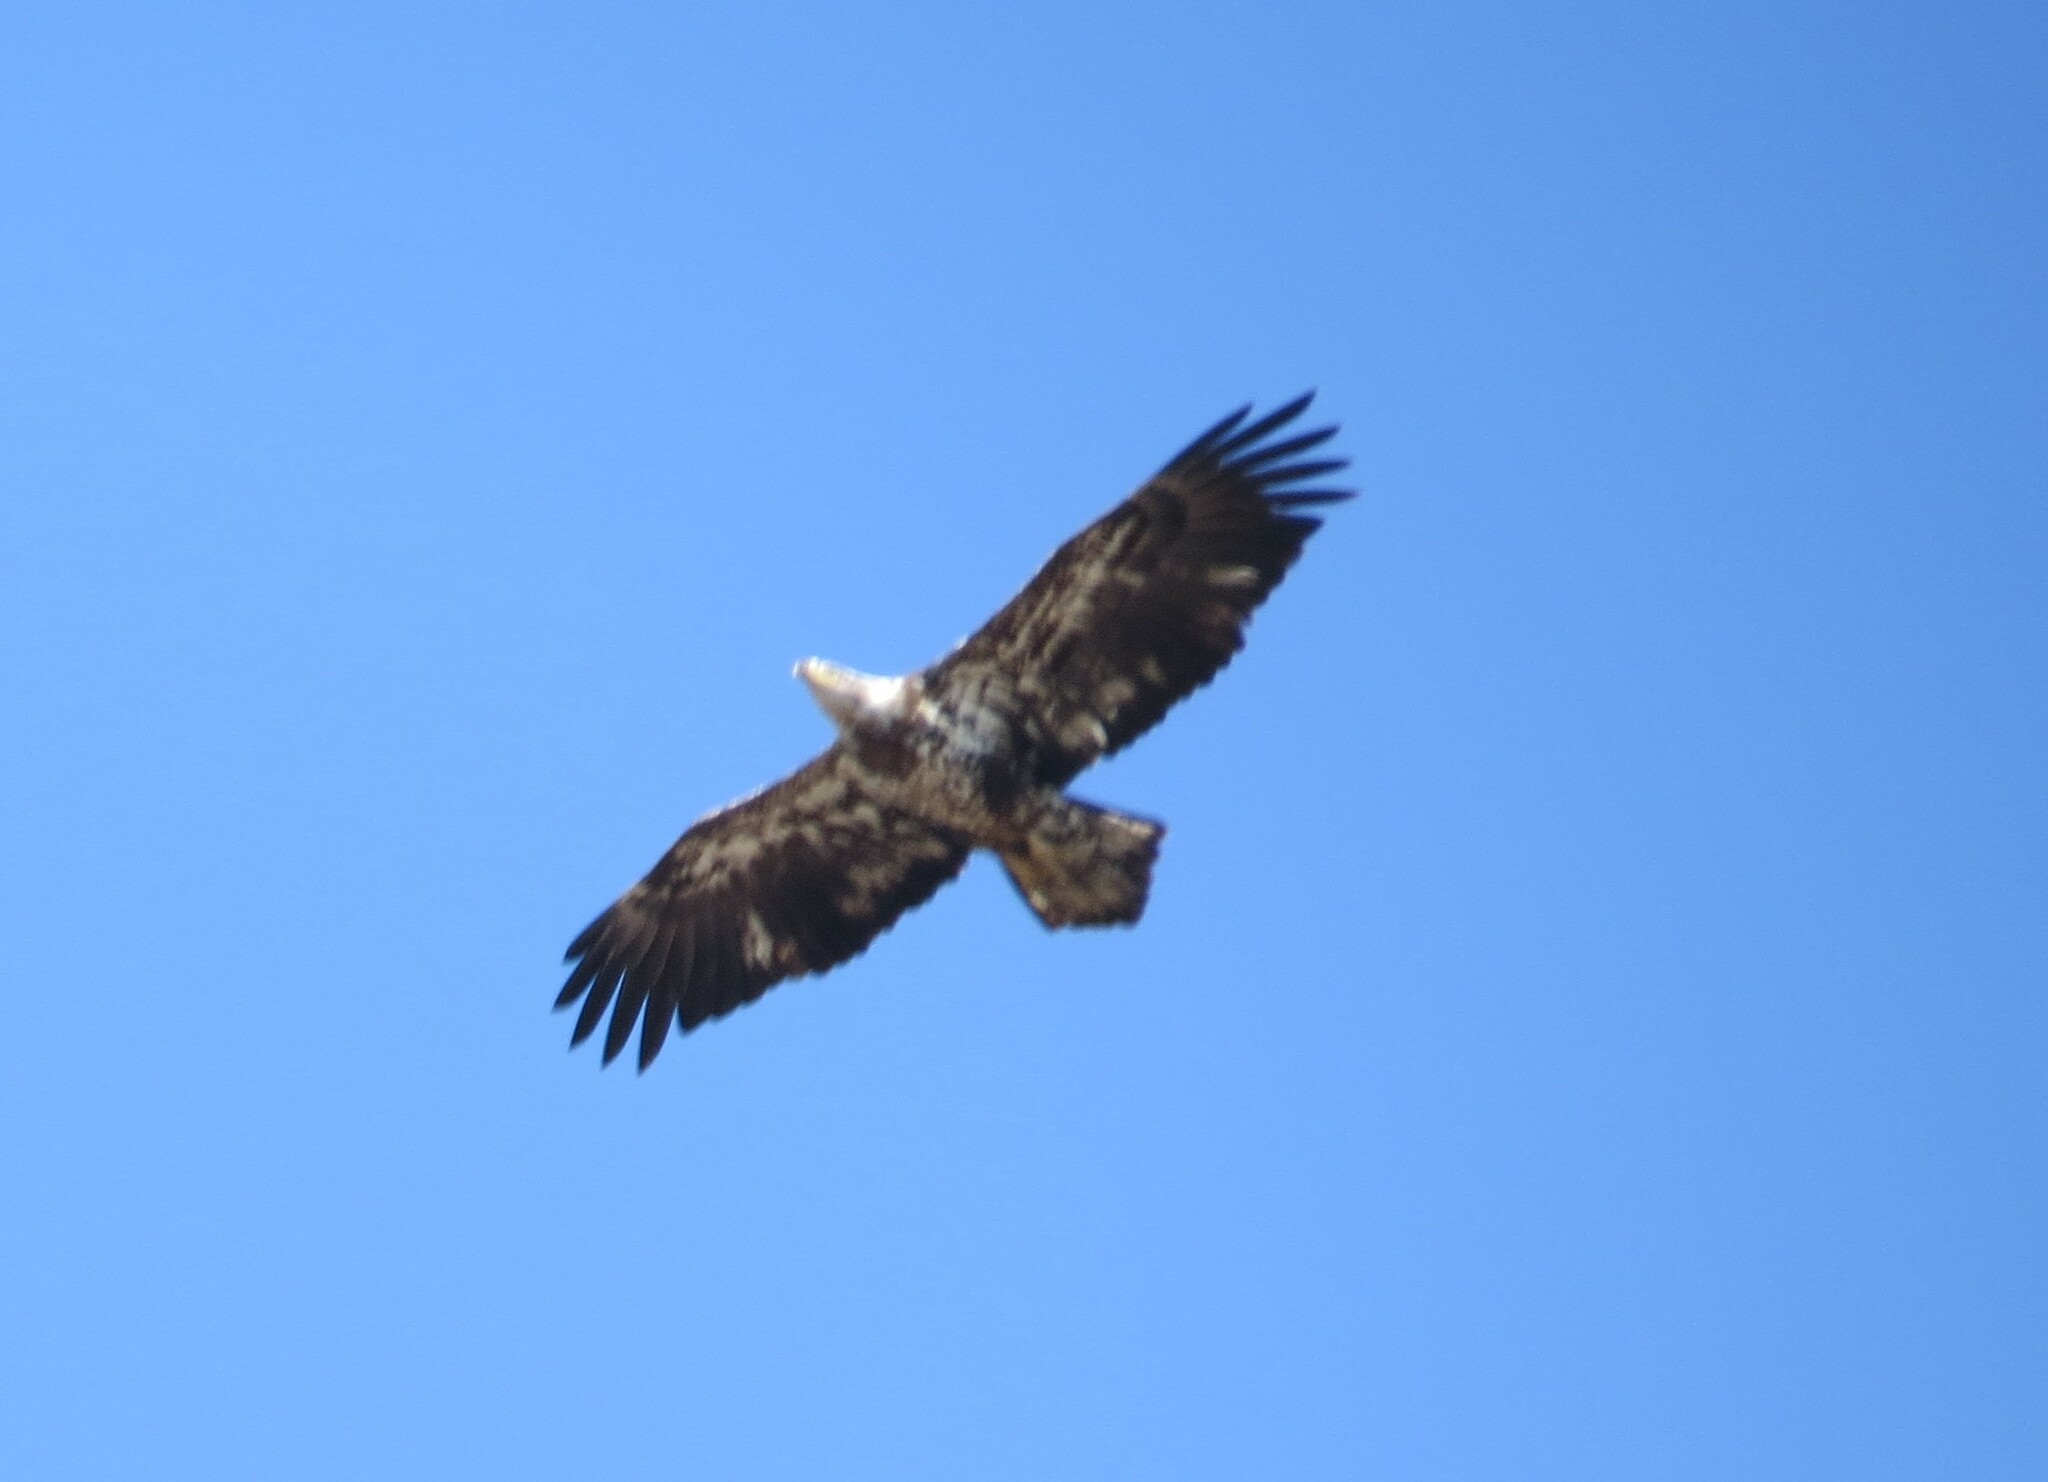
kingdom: Animalia
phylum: Chordata
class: Aves
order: Accipitriformes
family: Accipitridae
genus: Haliaeetus
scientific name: Haliaeetus leucocephalus
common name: Bald eagle
